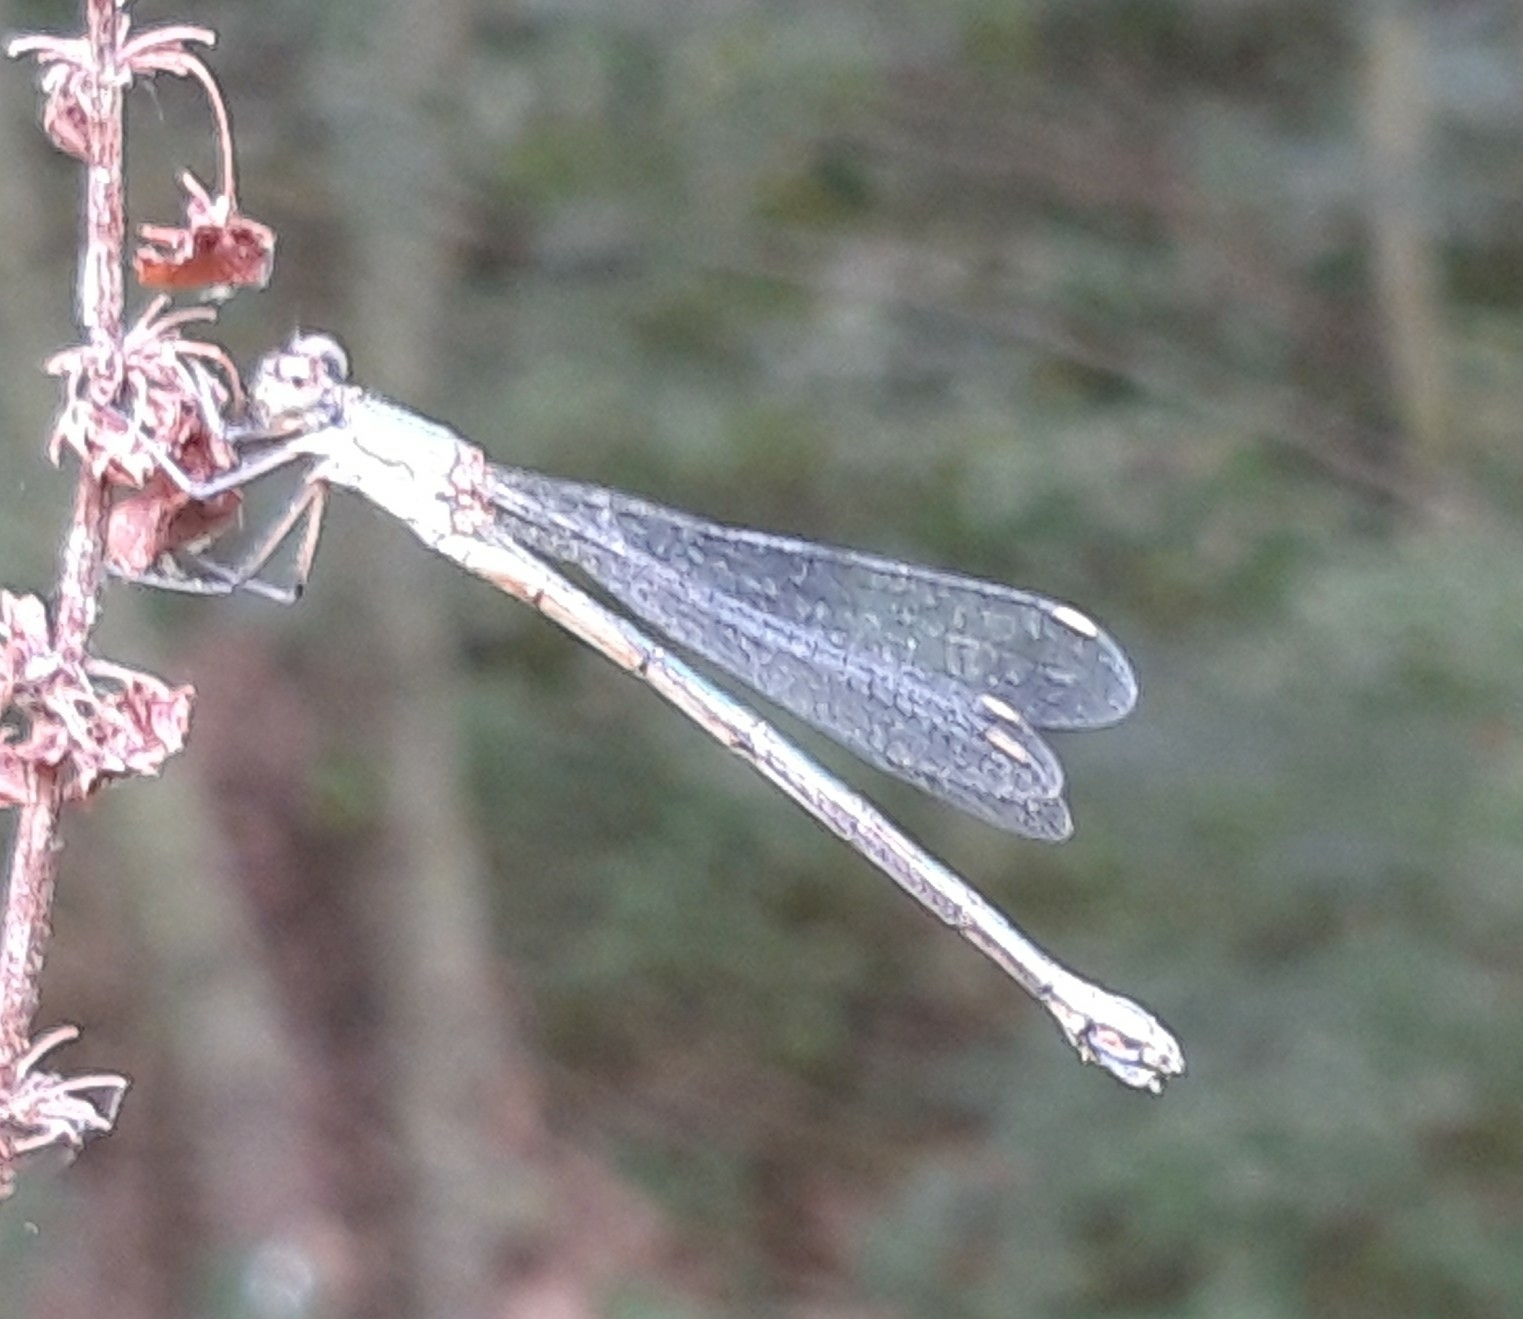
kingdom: Animalia
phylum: Arthropoda
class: Insecta
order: Odonata
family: Lestidae
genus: Chalcolestes
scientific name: Chalcolestes viridis
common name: Green emerald damselfly
